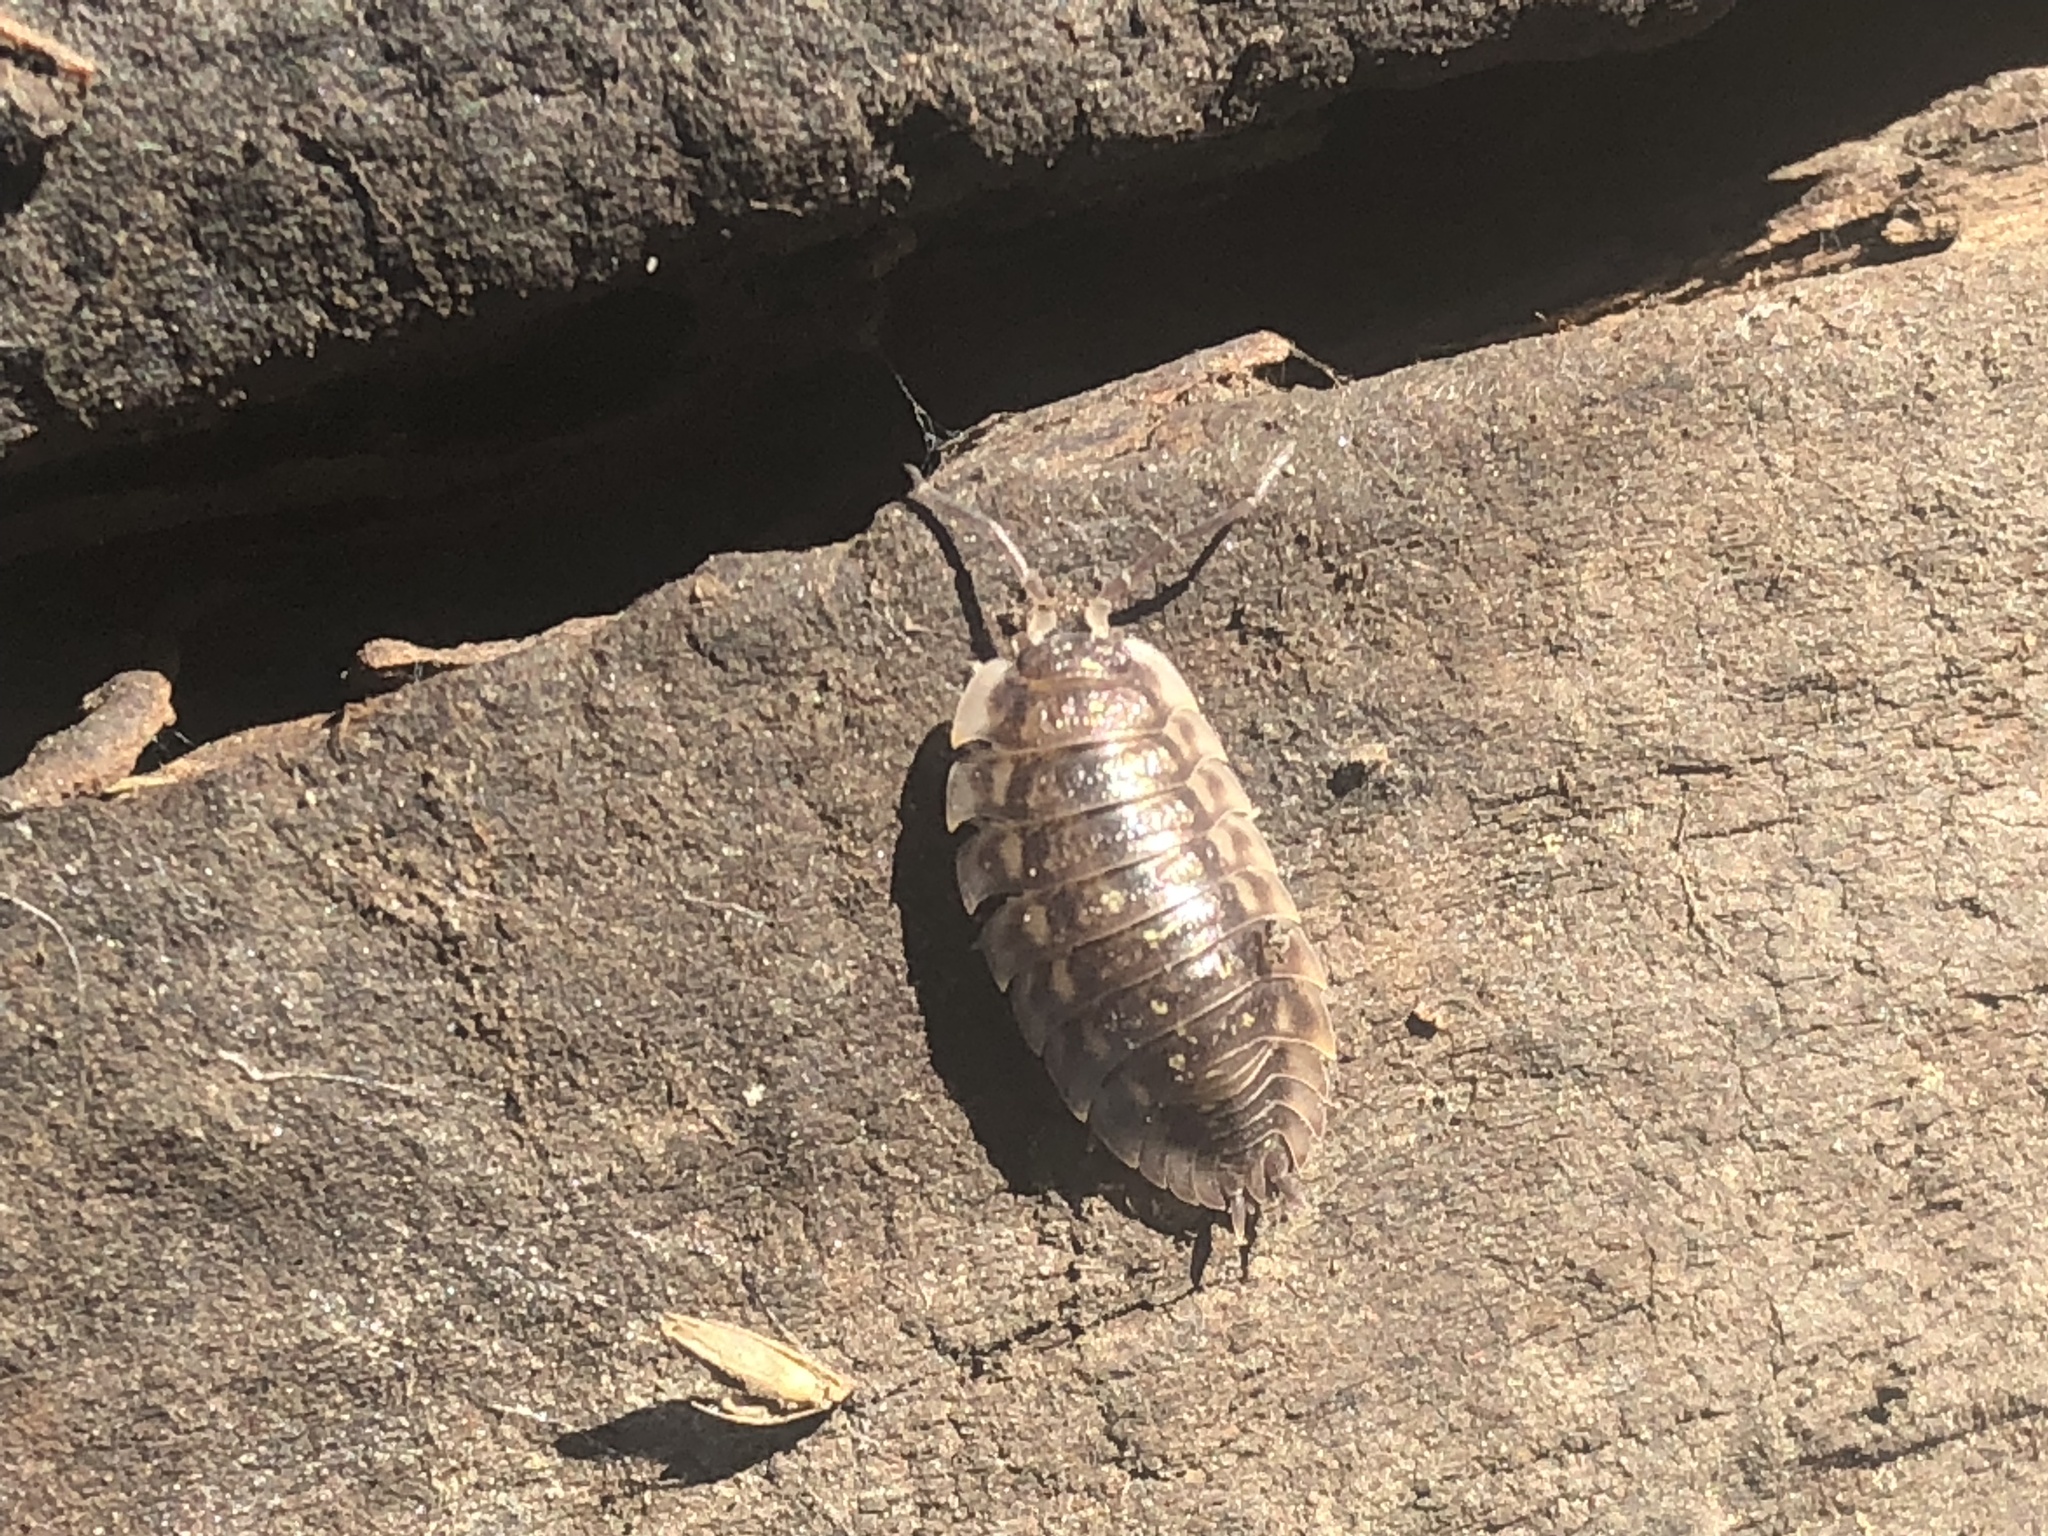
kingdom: Animalia
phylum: Arthropoda
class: Malacostraca
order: Isopoda
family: Oniscidae
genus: Oniscus
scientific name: Oniscus asellus
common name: Common shiny woodlouse
